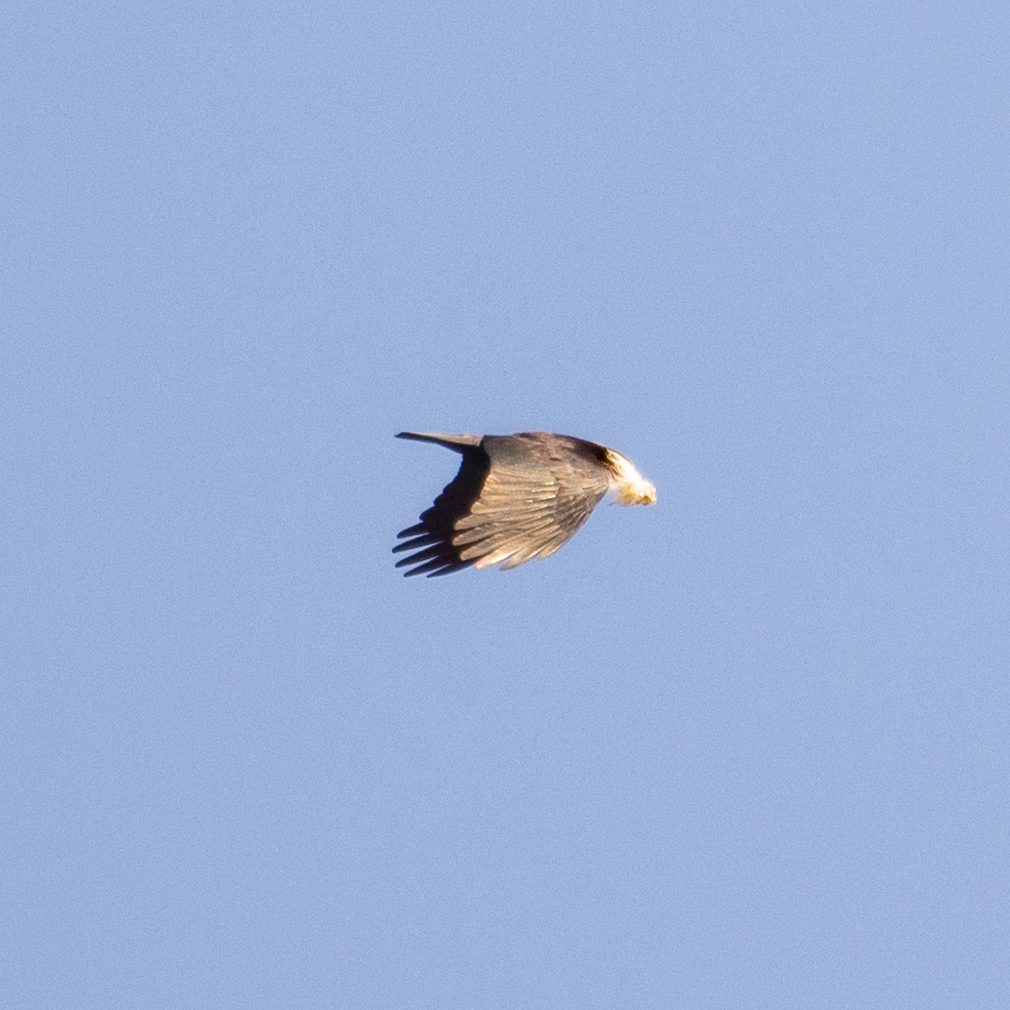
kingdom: Animalia
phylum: Chordata
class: Aves
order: Passeriformes
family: Corvidae
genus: Pyrrhocorax
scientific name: Pyrrhocorax pyrrhocorax
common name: Red-billed chough
